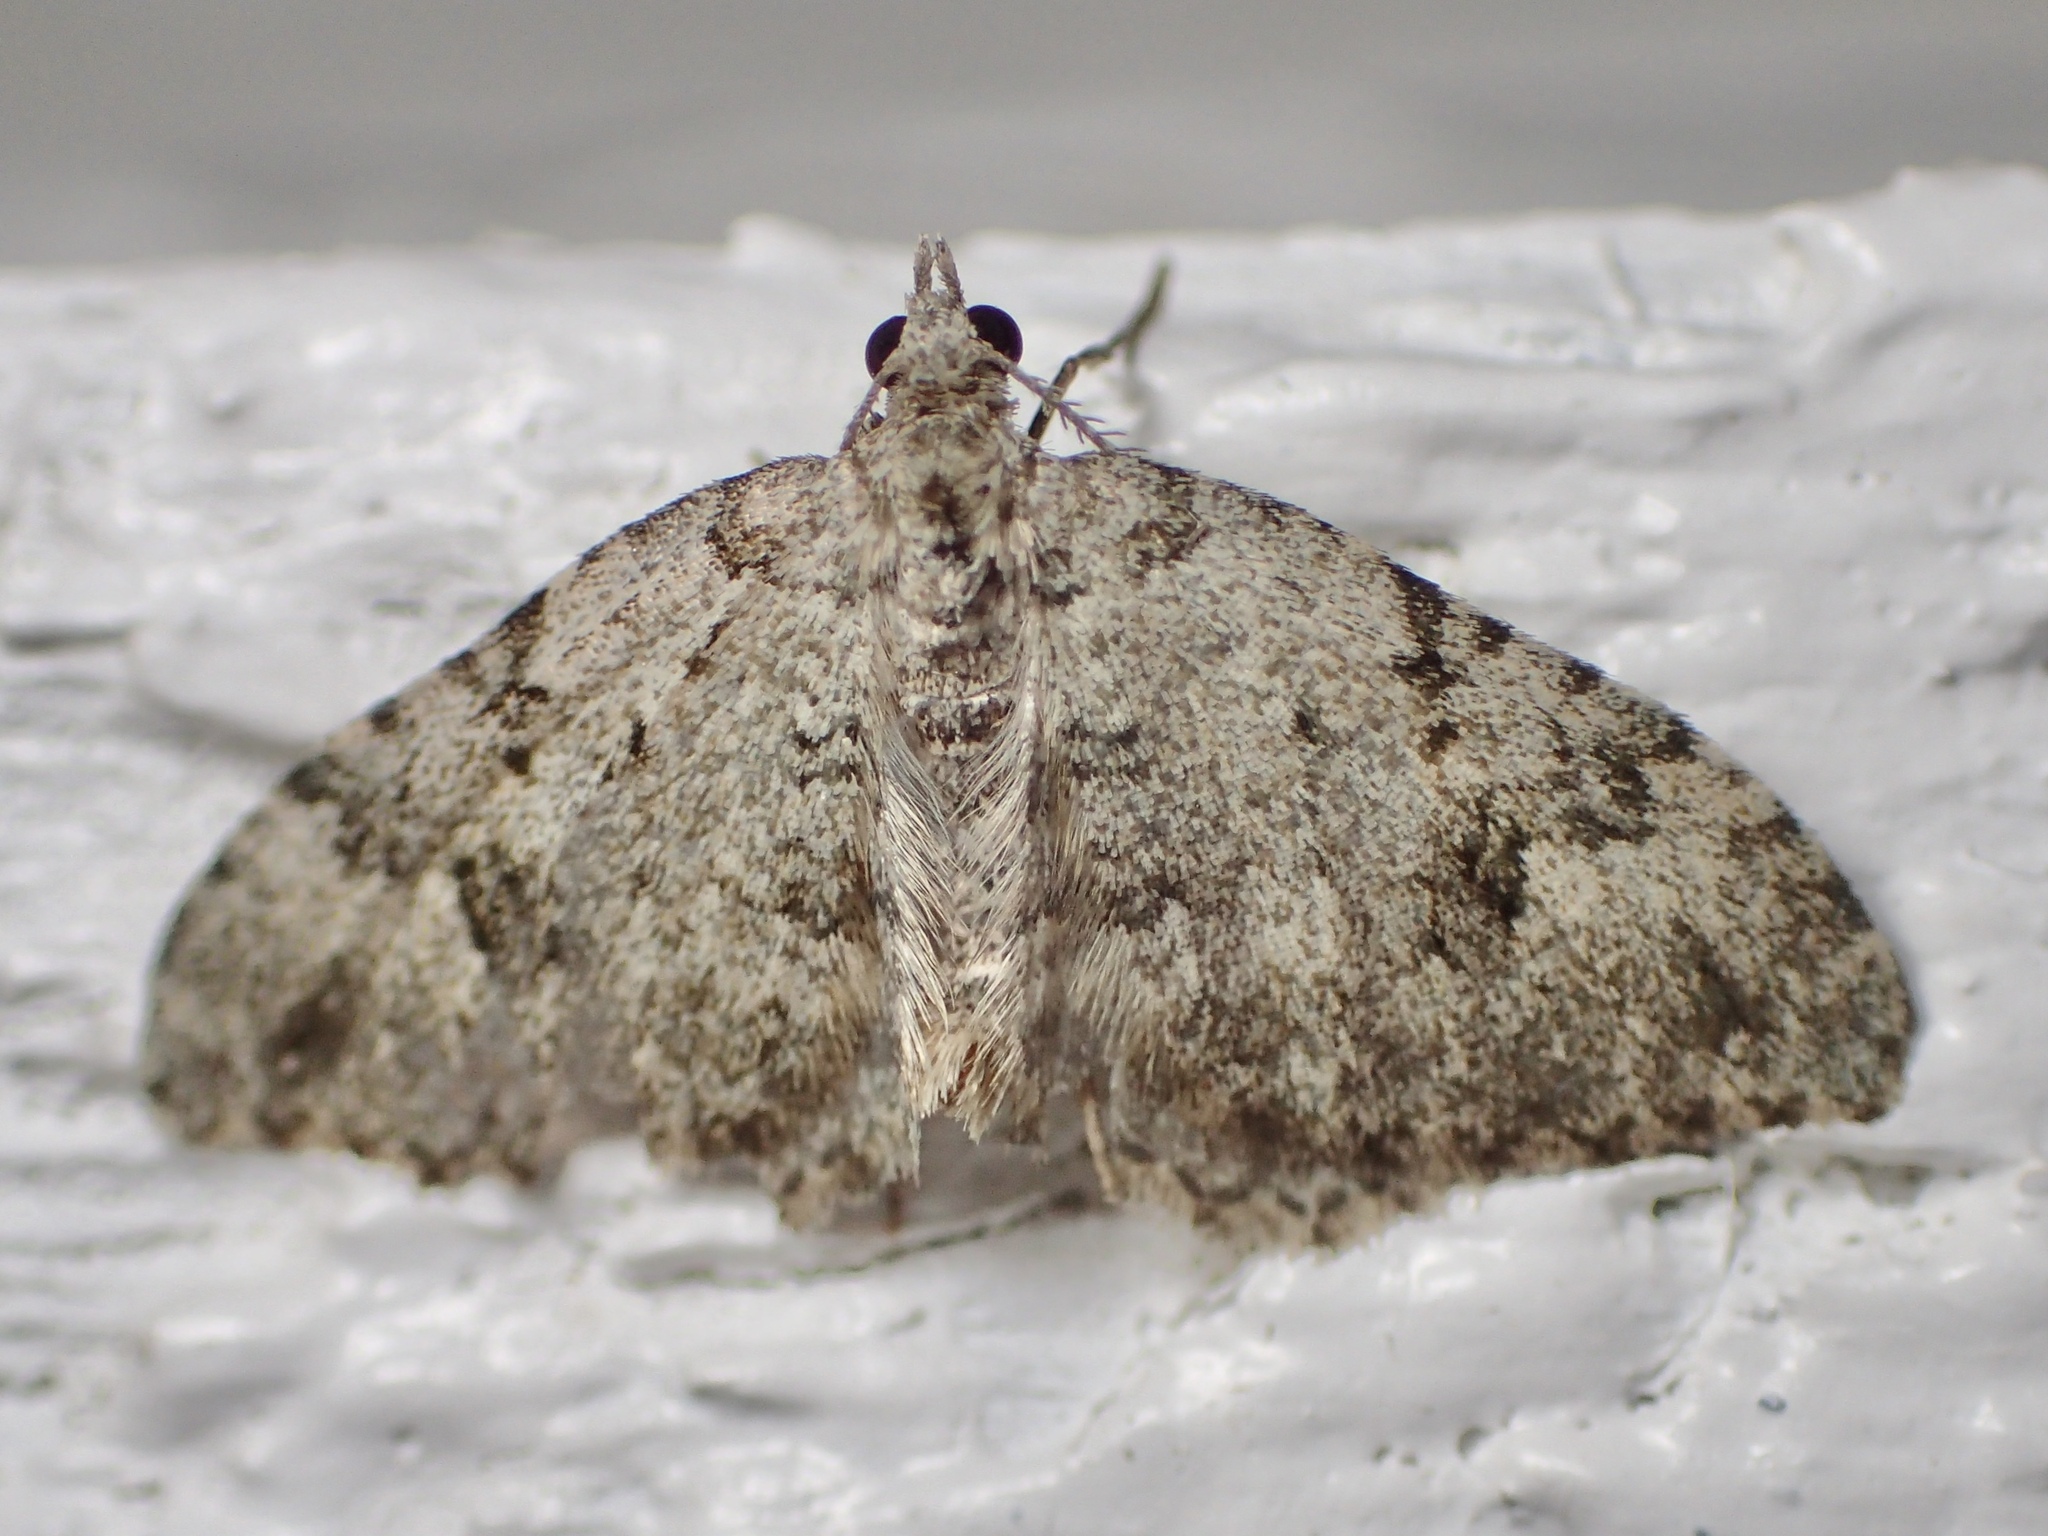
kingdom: Animalia
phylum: Arthropoda
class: Insecta
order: Lepidoptera
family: Geometridae
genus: Helastia
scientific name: Helastia cinerearia
